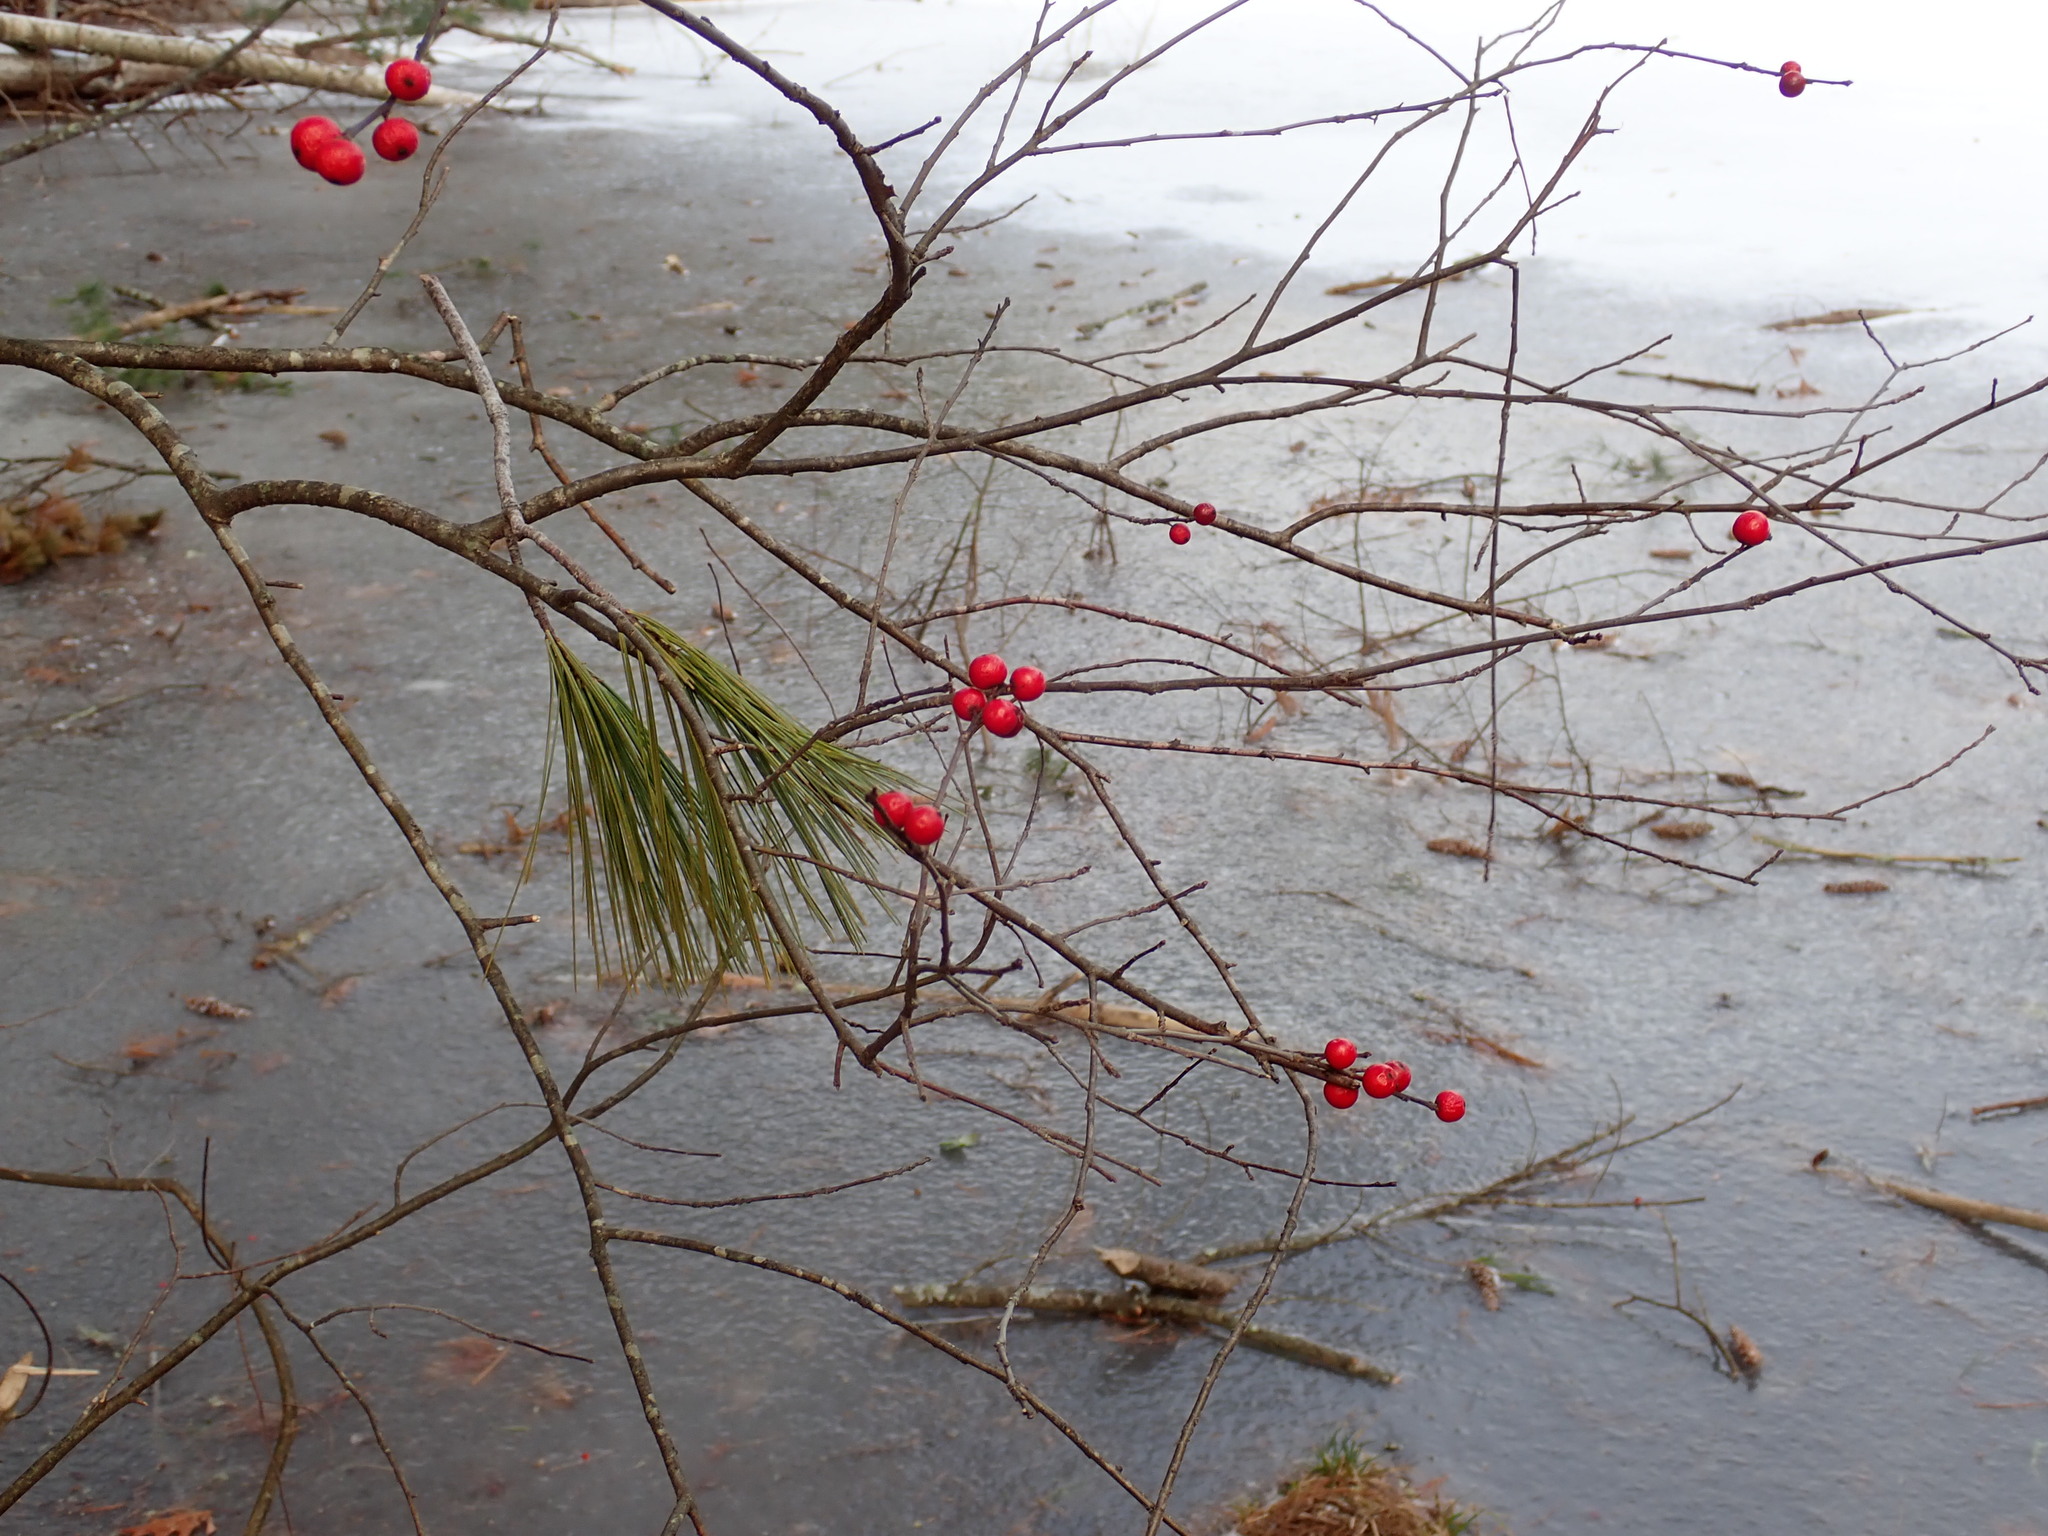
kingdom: Plantae
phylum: Tracheophyta
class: Magnoliopsida
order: Aquifoliales
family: Aquifoliaceae
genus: Ilex
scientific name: Ilex verticillata
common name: Virginia winterberry
